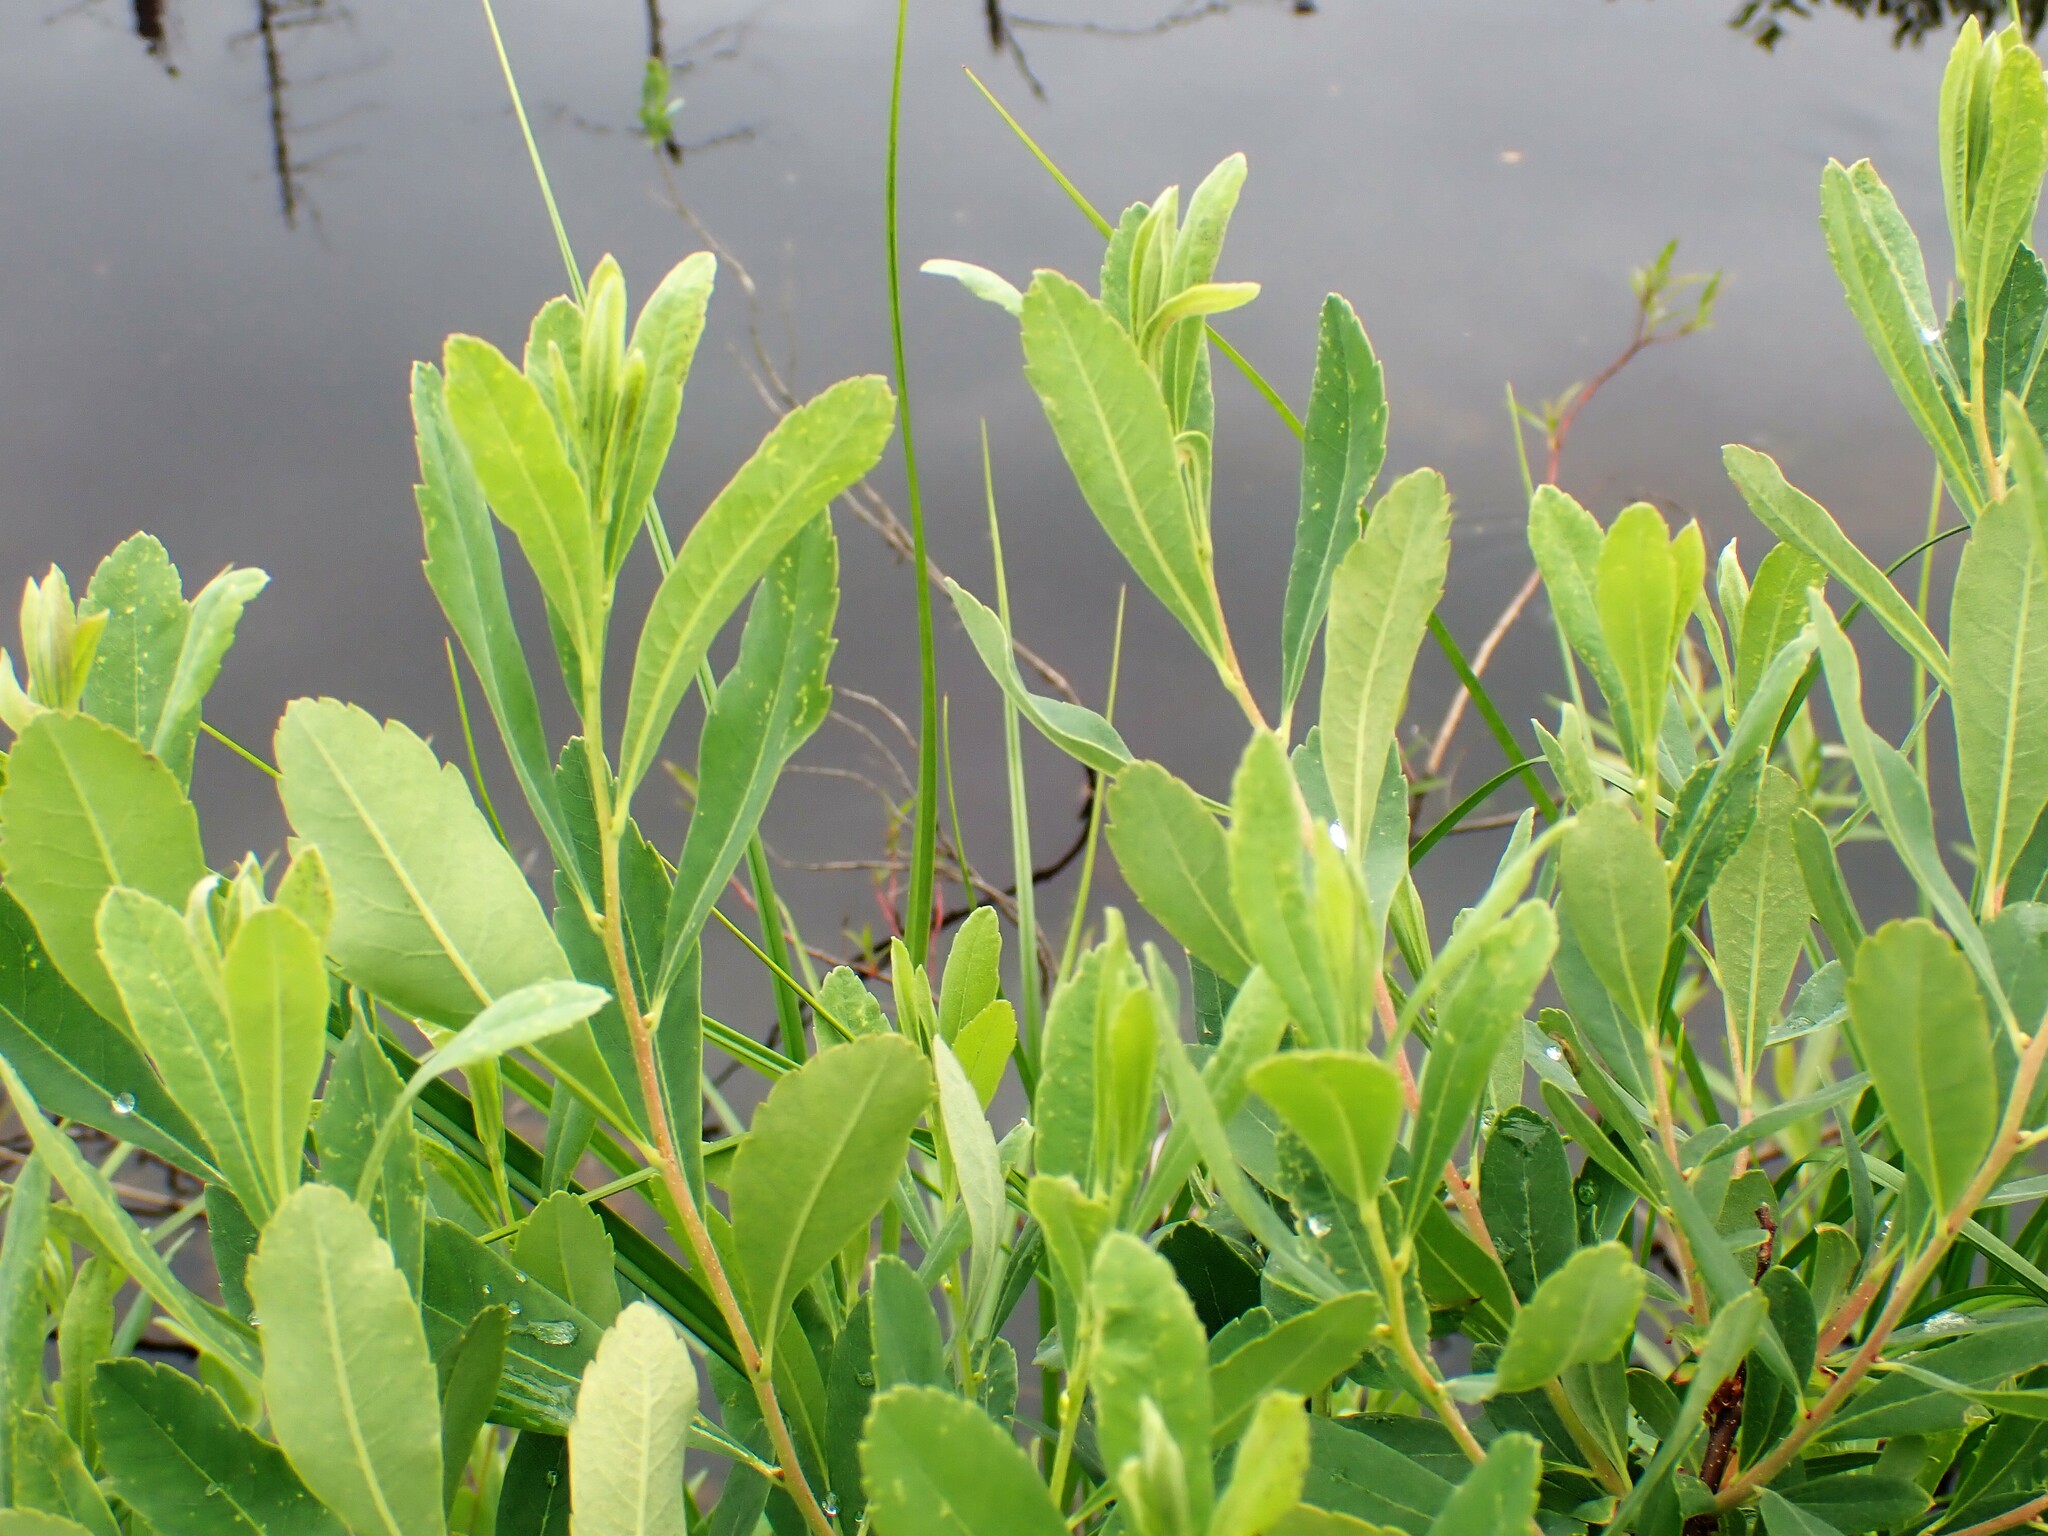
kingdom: Plantae
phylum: Tracheophyta
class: Magnoliopsida
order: Fagales
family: Myricaceae
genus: Myrica
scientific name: Myrica gale
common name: Sweet gale
